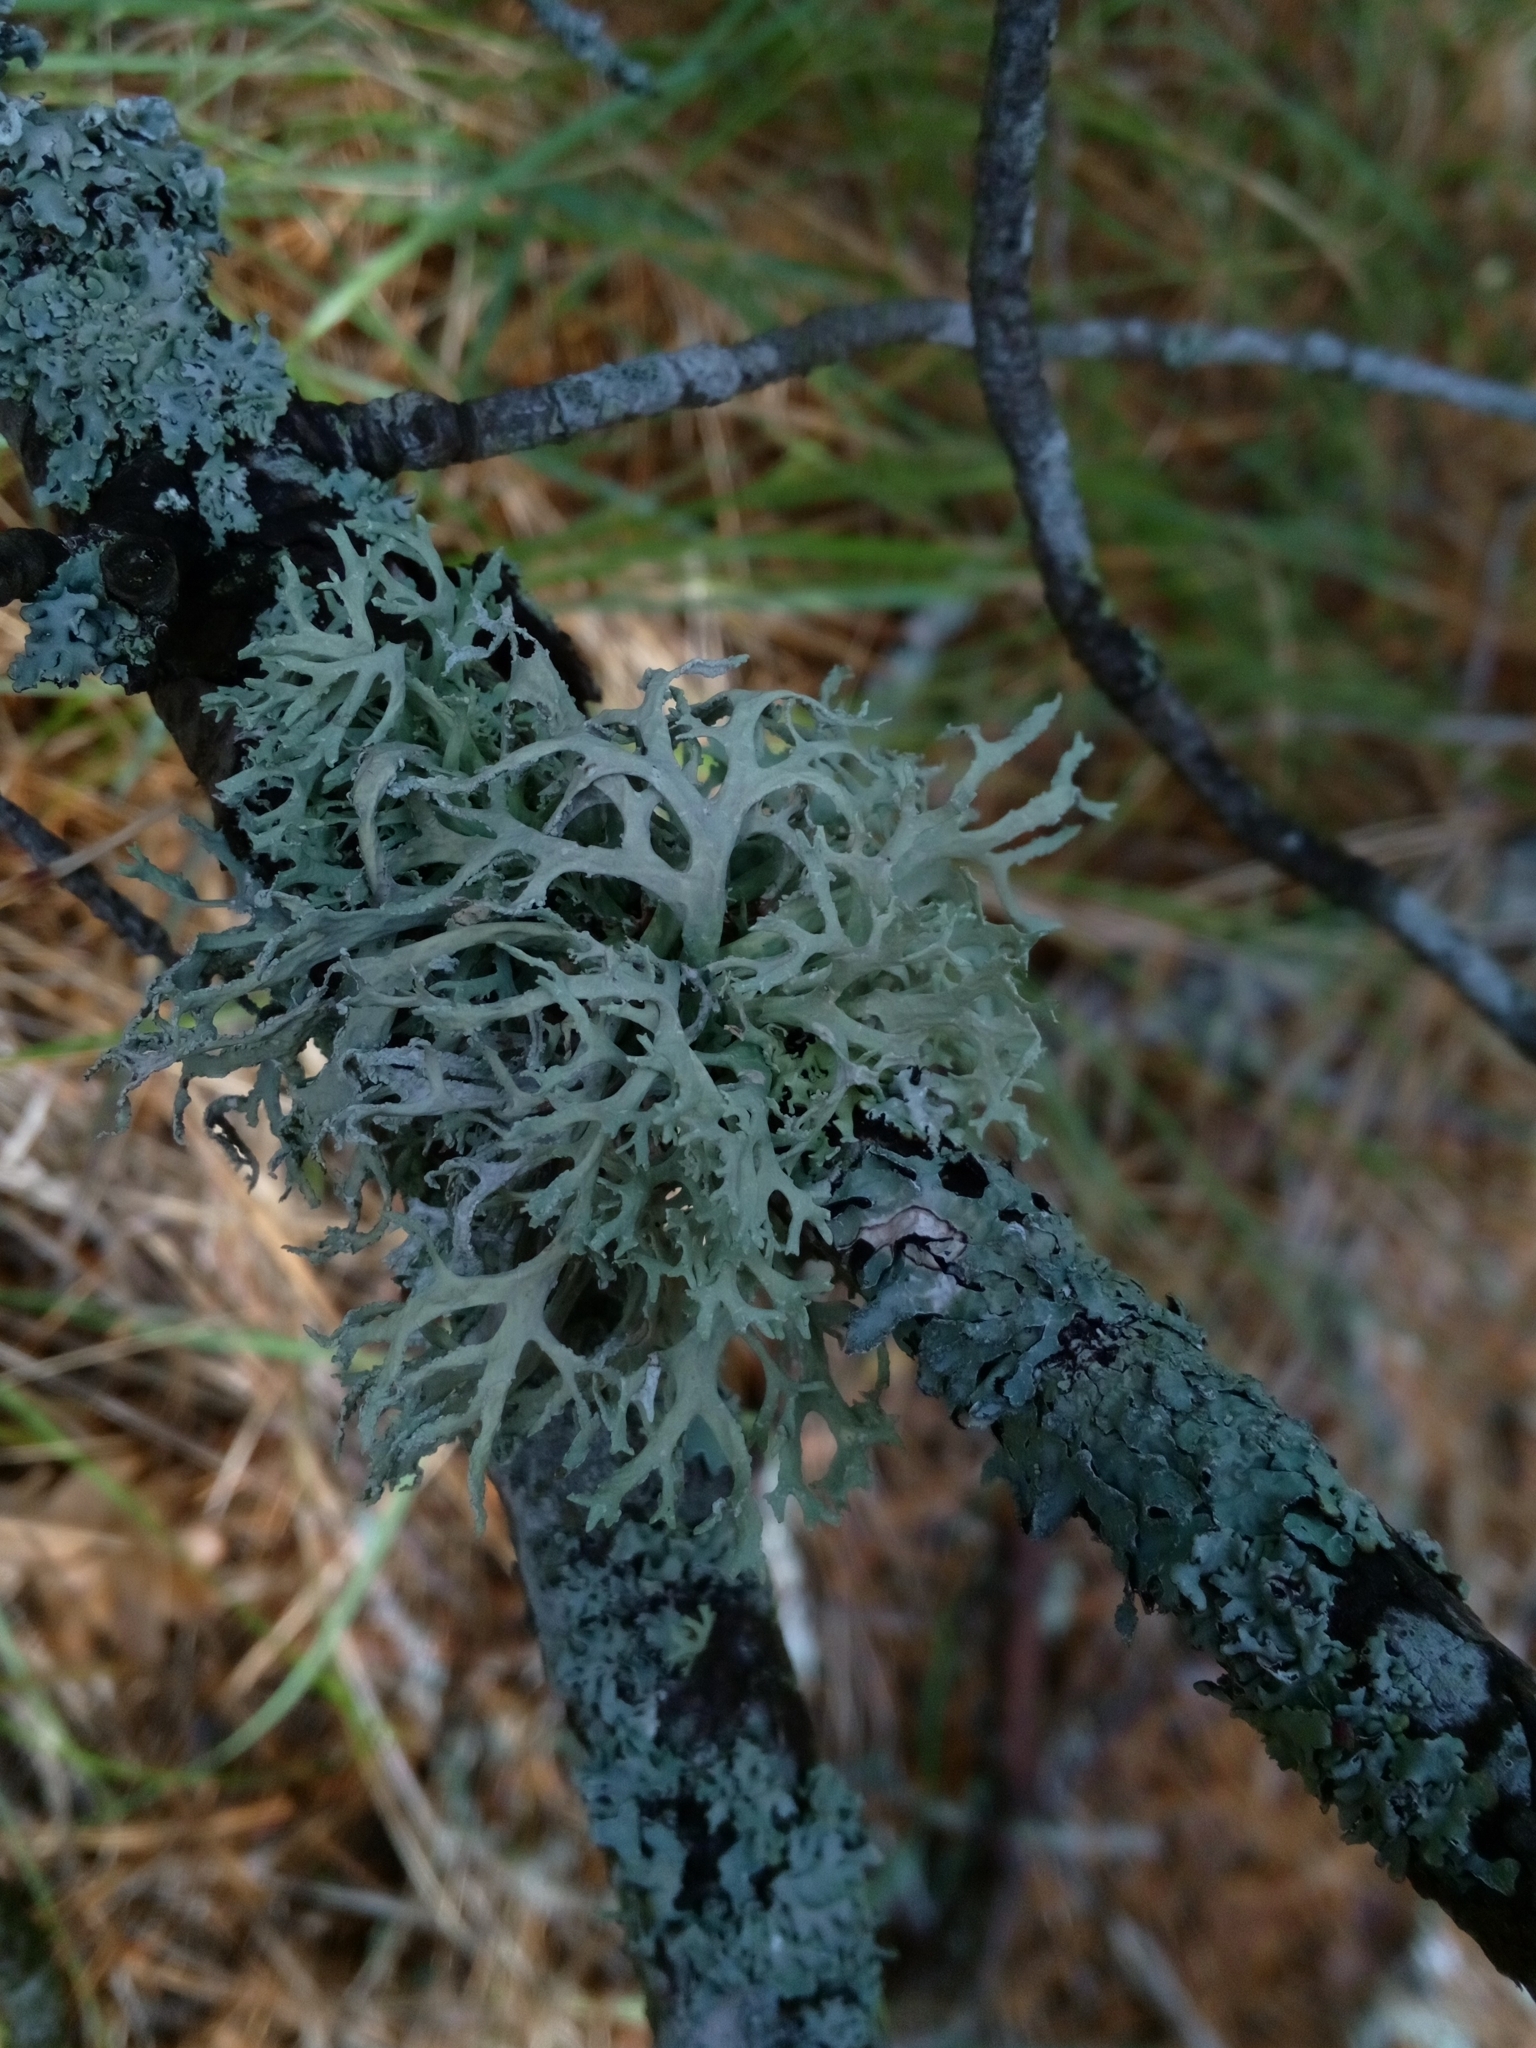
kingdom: Fungi
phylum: Ascomycota
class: Lecanoromycetes
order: Lecanorales
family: Parmeliaceae
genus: Evernia
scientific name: Evernia prunastri
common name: Oak moss
